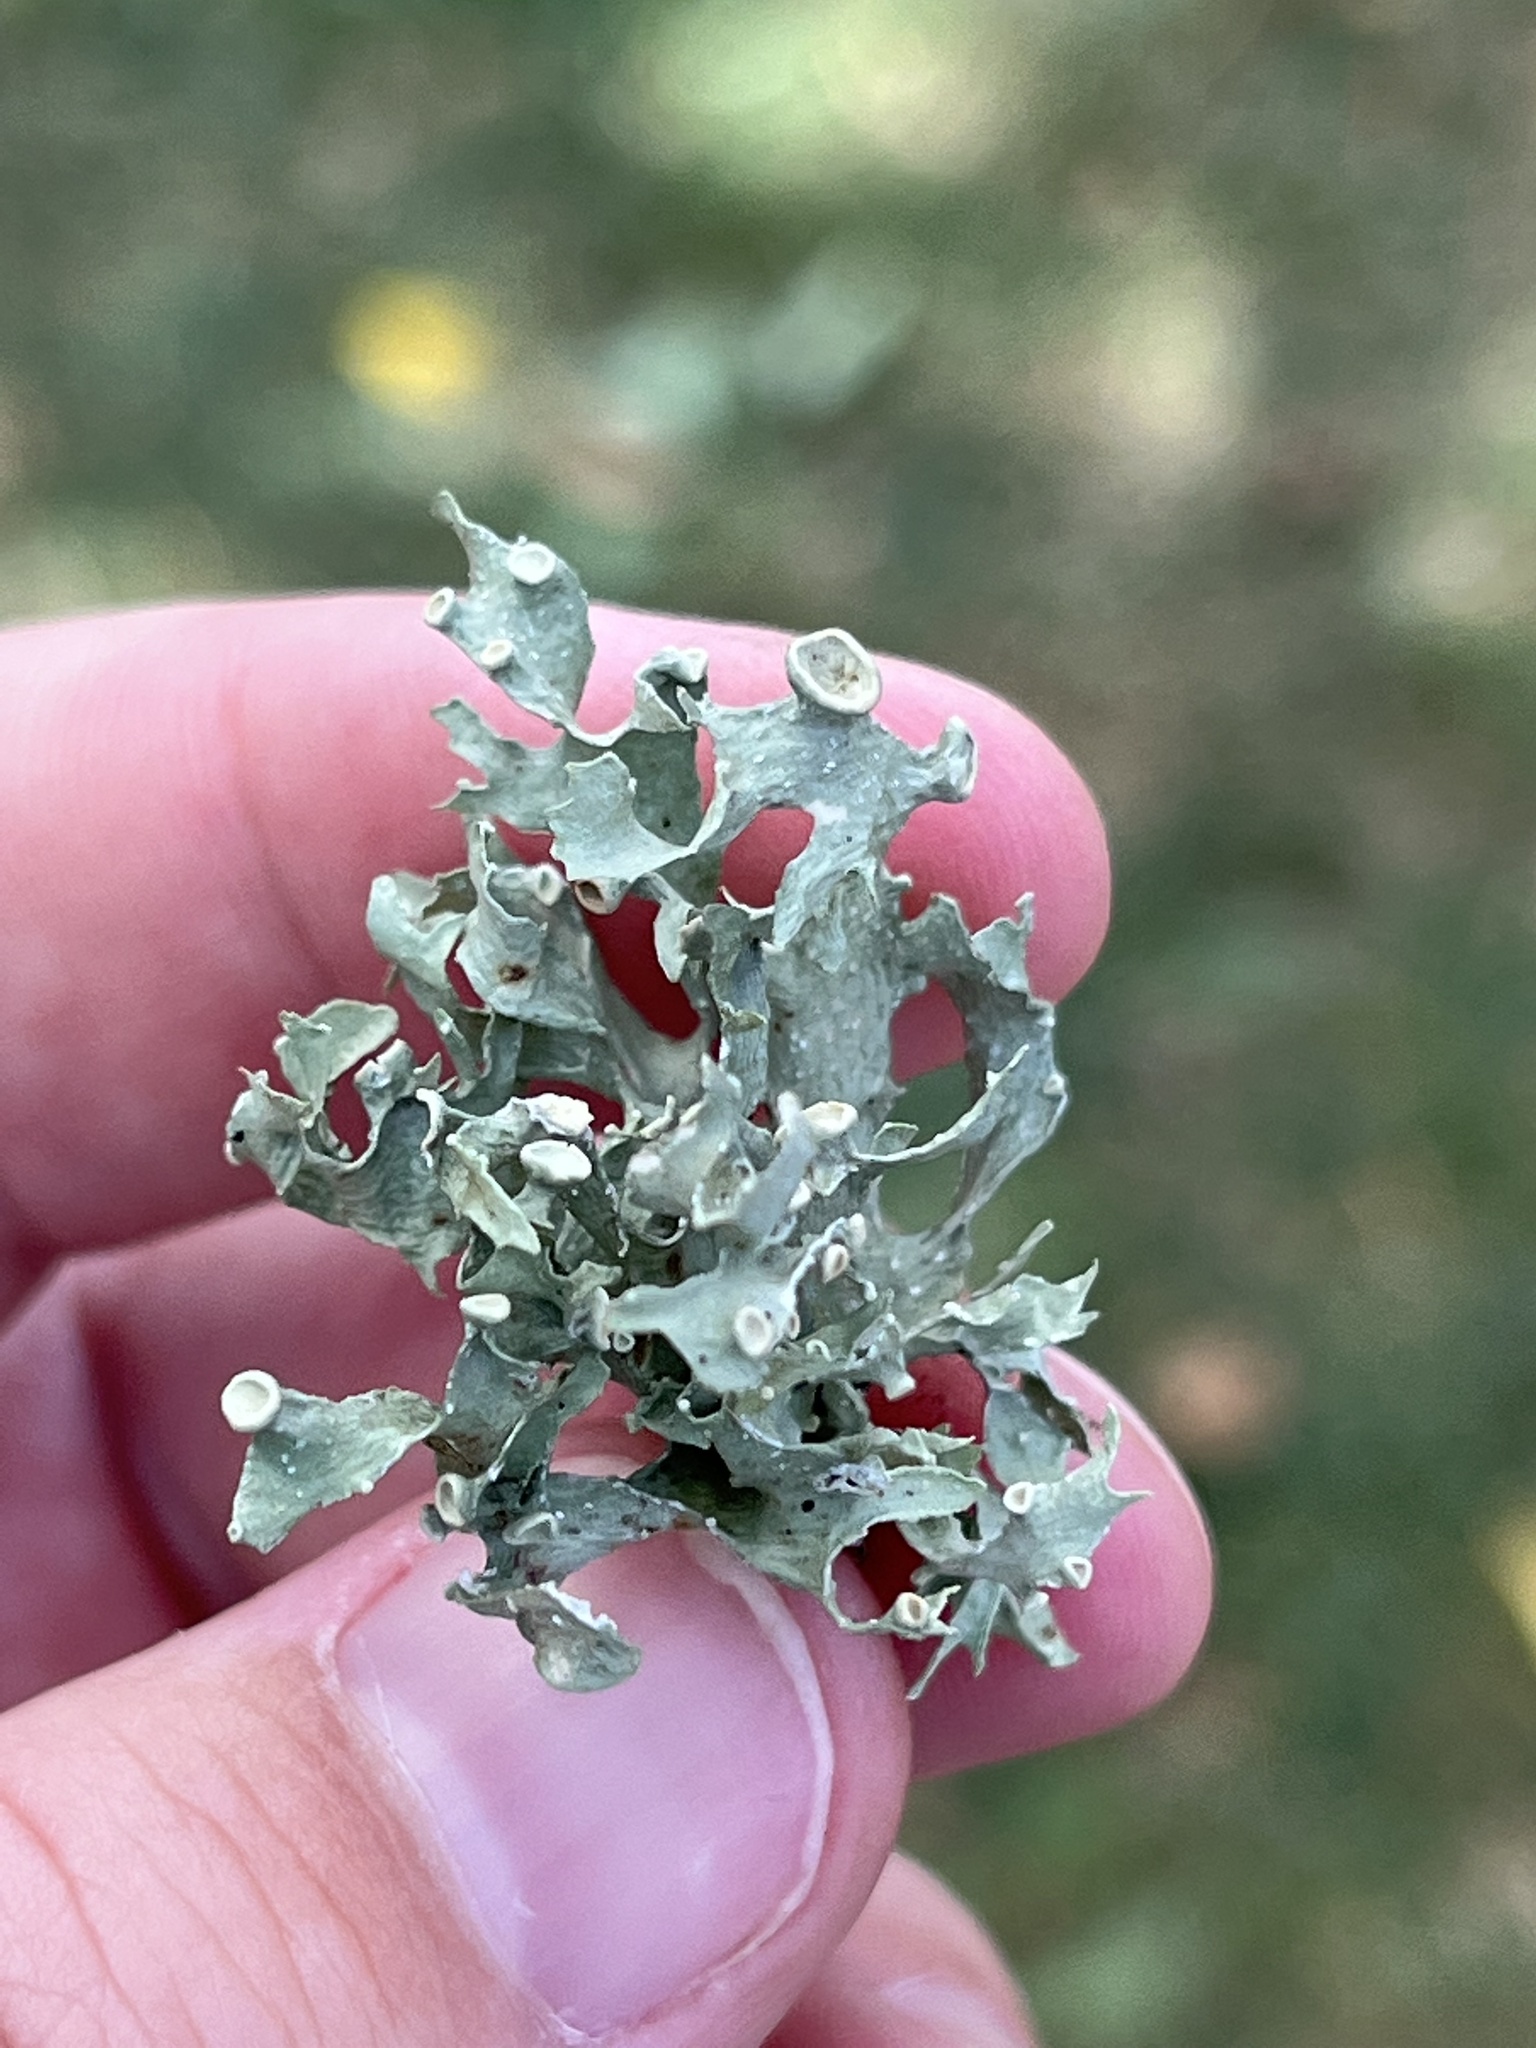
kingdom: Fungi
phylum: Ascomycota
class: Lecanoromycetes
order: Lecanorales
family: Ramalinaceae
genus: Ramalina
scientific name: Ramalina americana
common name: Sinewed bush lichen
